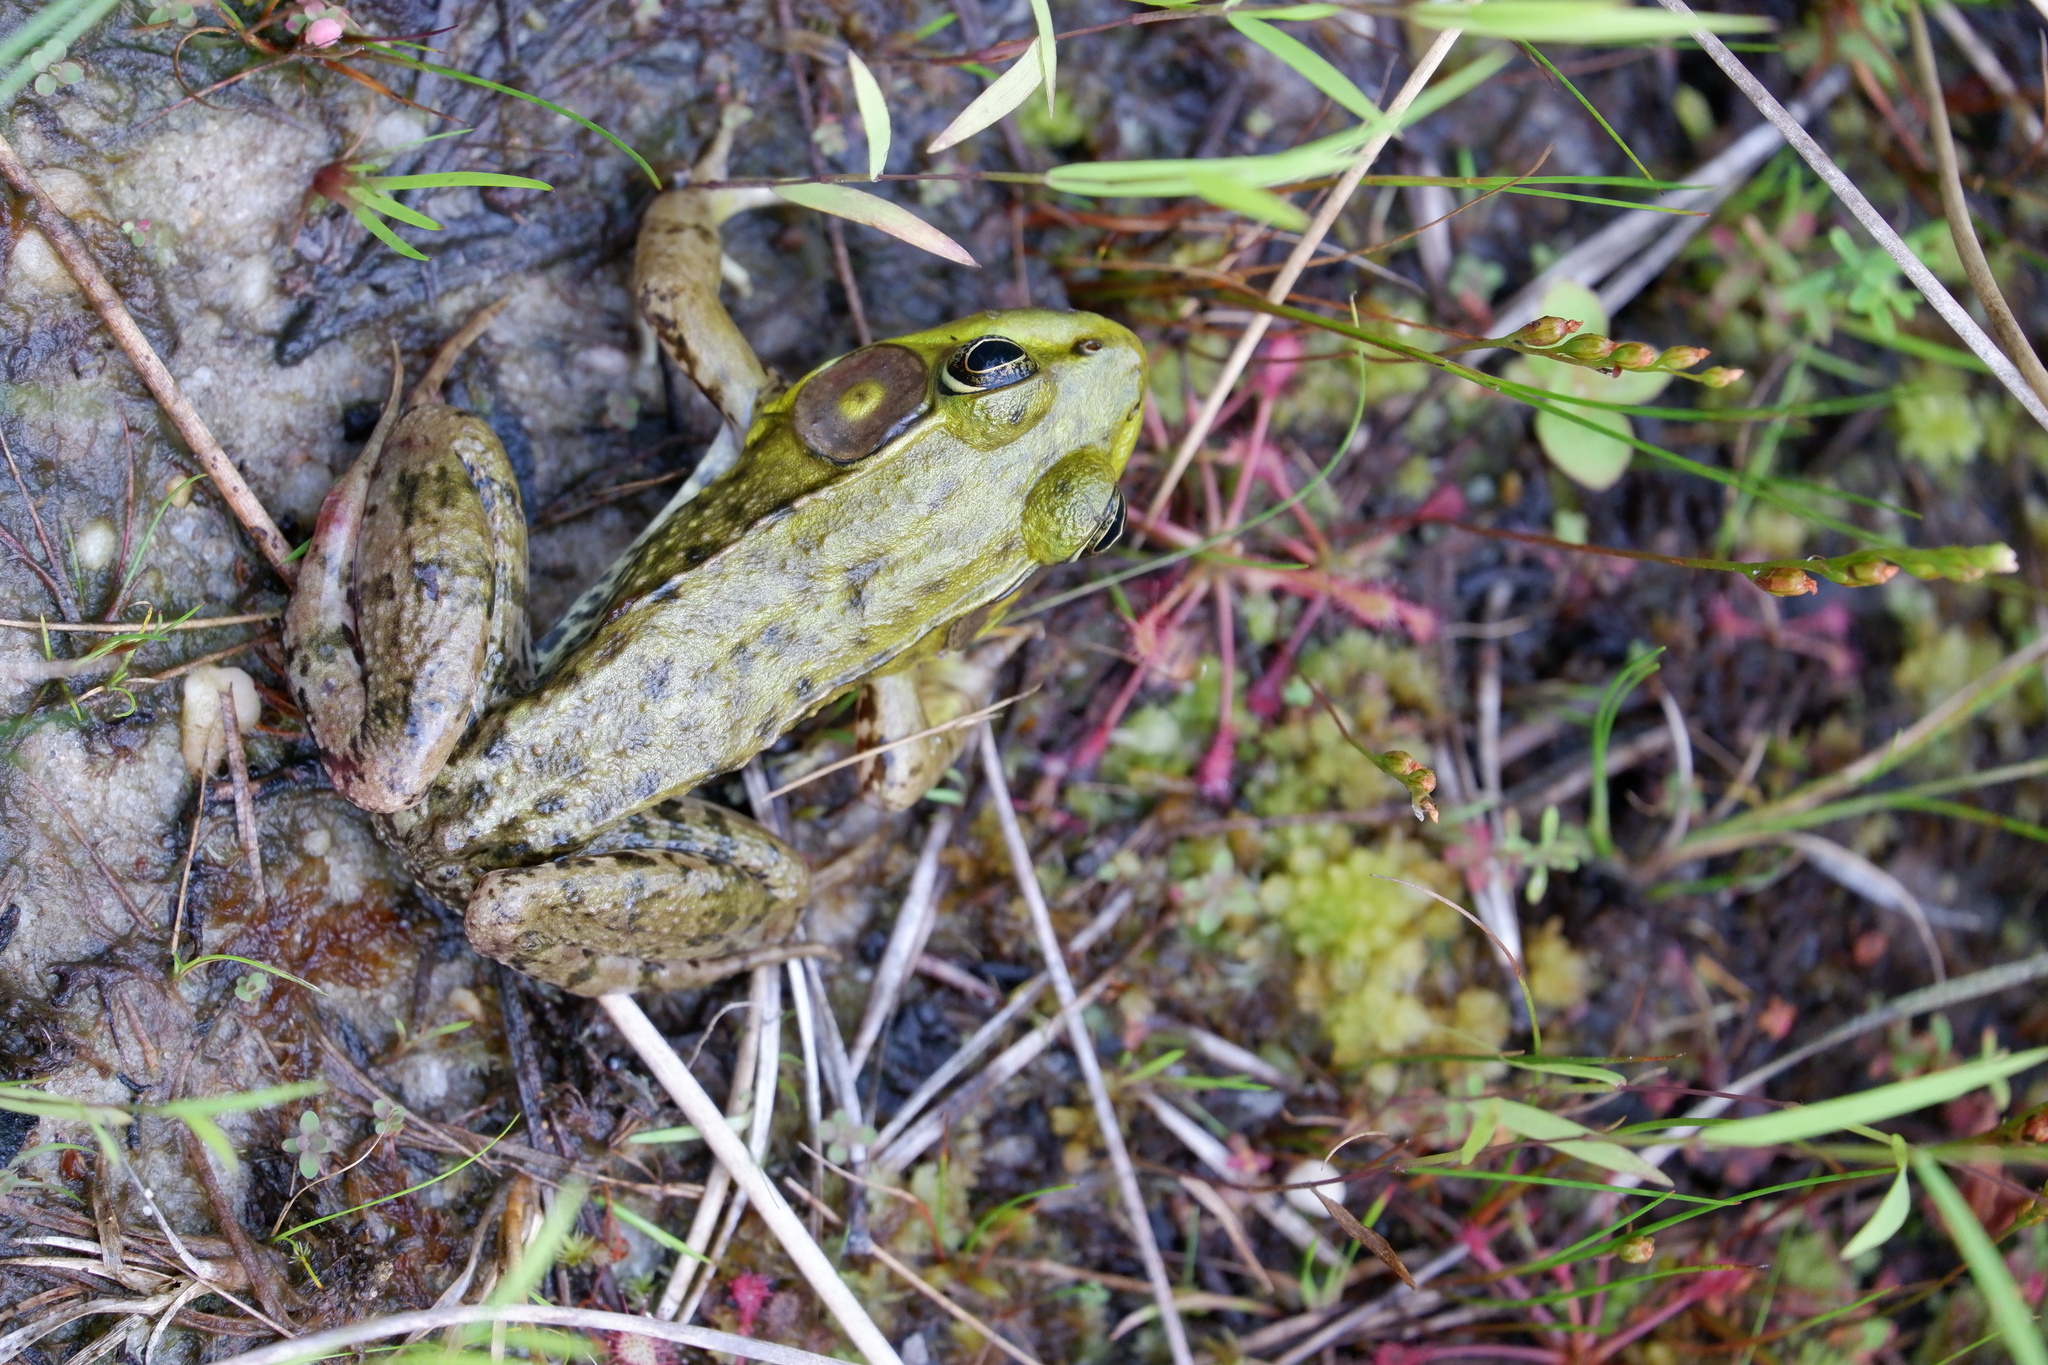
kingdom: Animalia
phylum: Chordata
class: Amphibia
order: Anura
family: Ranidae
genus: Lithobates
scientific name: Lithobates clamitans
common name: Green frog
